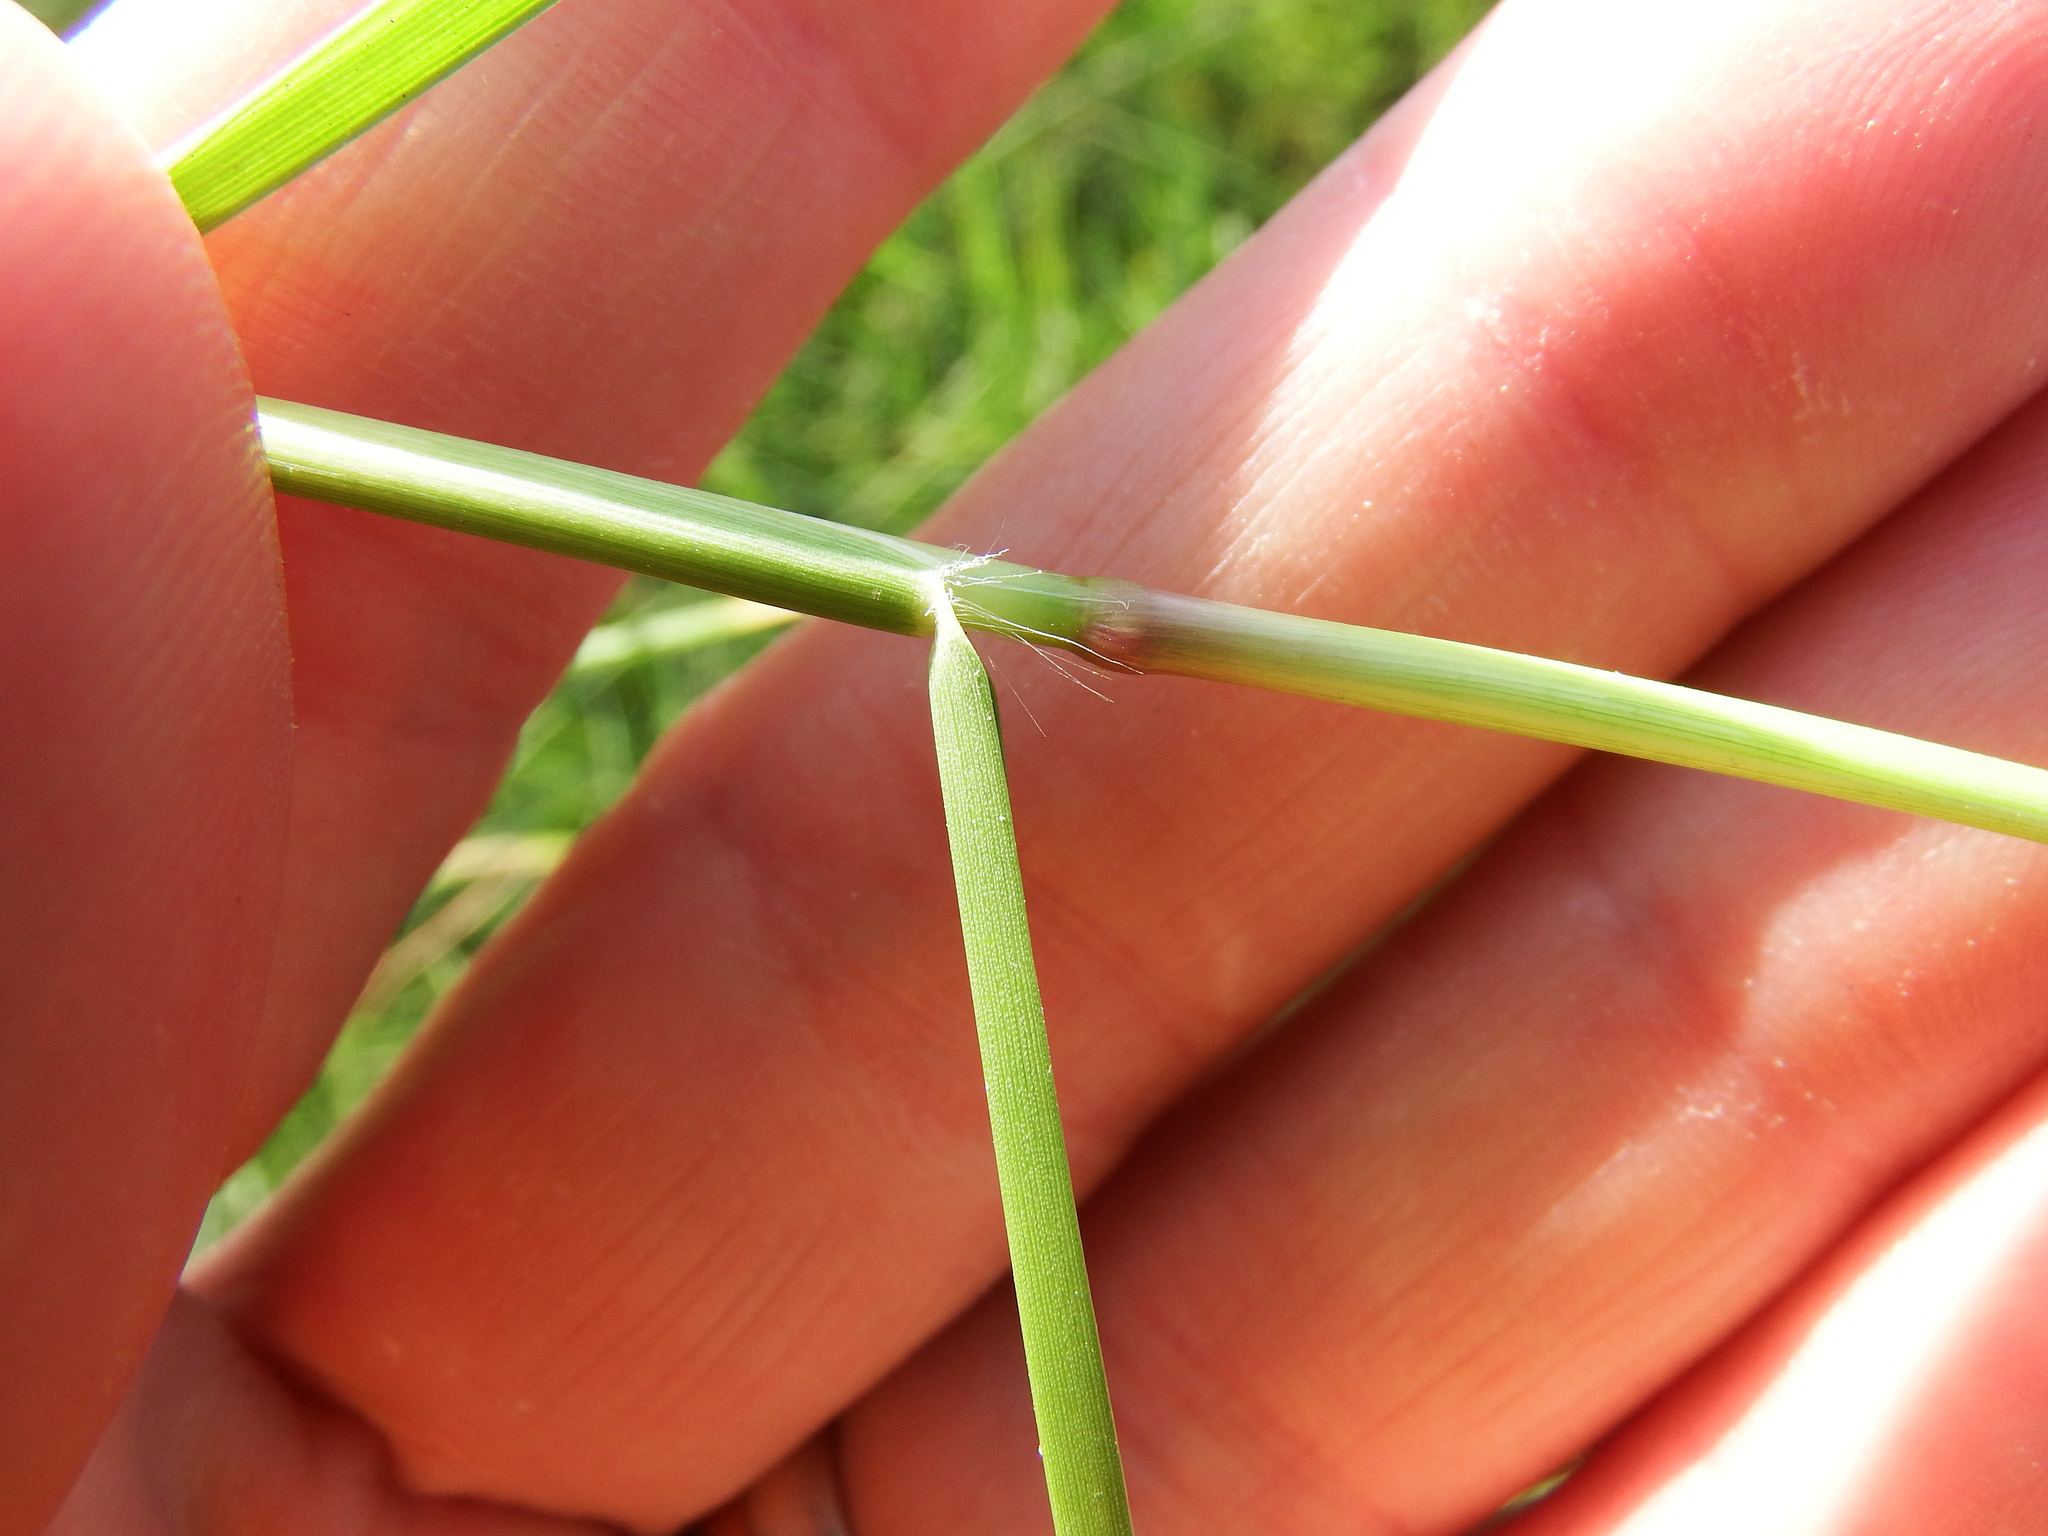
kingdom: Plantae
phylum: Tracheophyta
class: Liliopsida
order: Poales
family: Poaceae
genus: Cynodon
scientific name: Cynodon dactylon
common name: Bermuda grass
